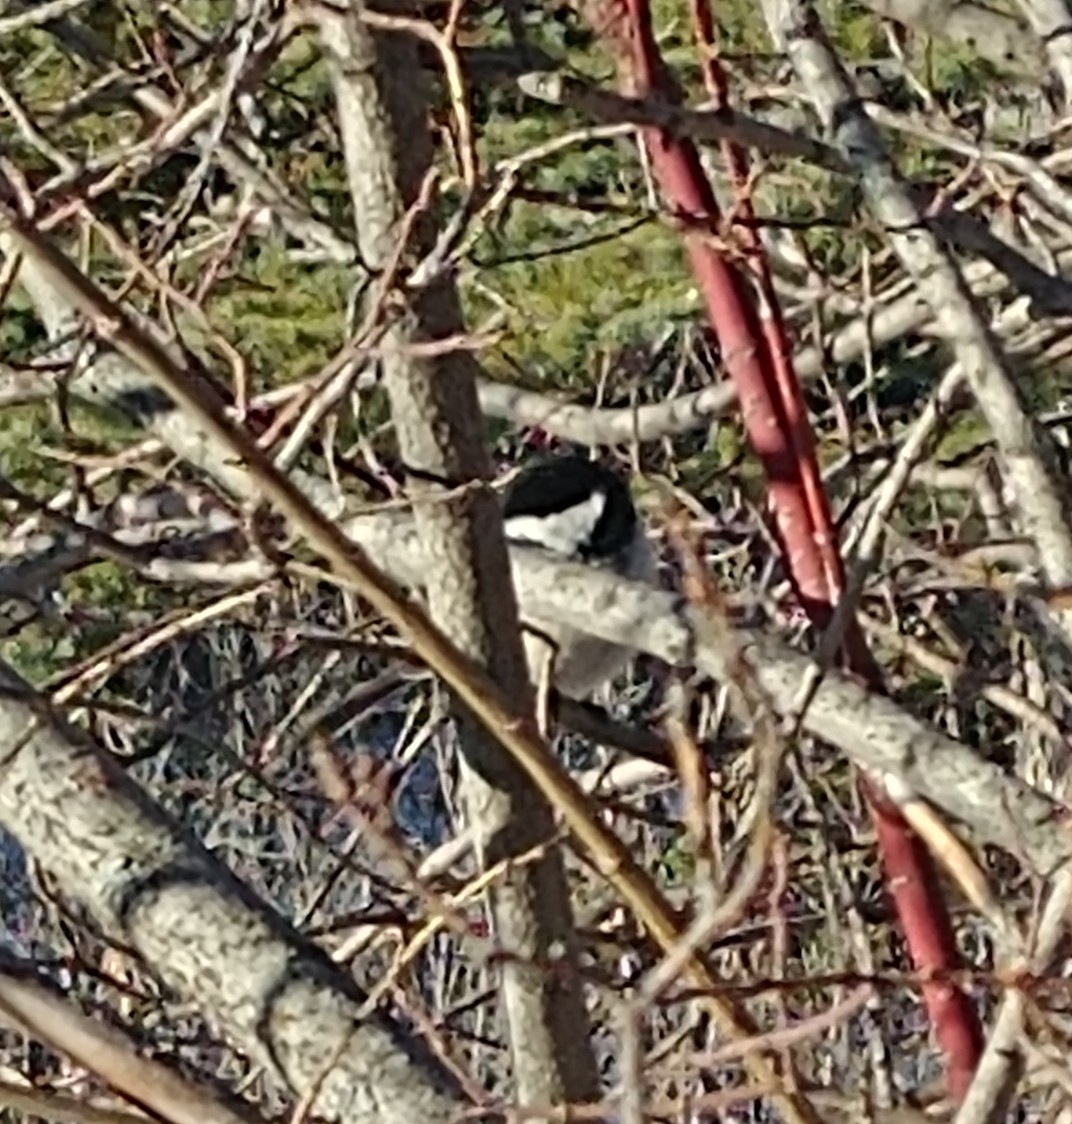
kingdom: Animalia
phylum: Chordata
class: Aves
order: Passeriformes
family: Paridae
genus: Poecile
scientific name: Poecile atricapillus
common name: Black-capped chickadee
